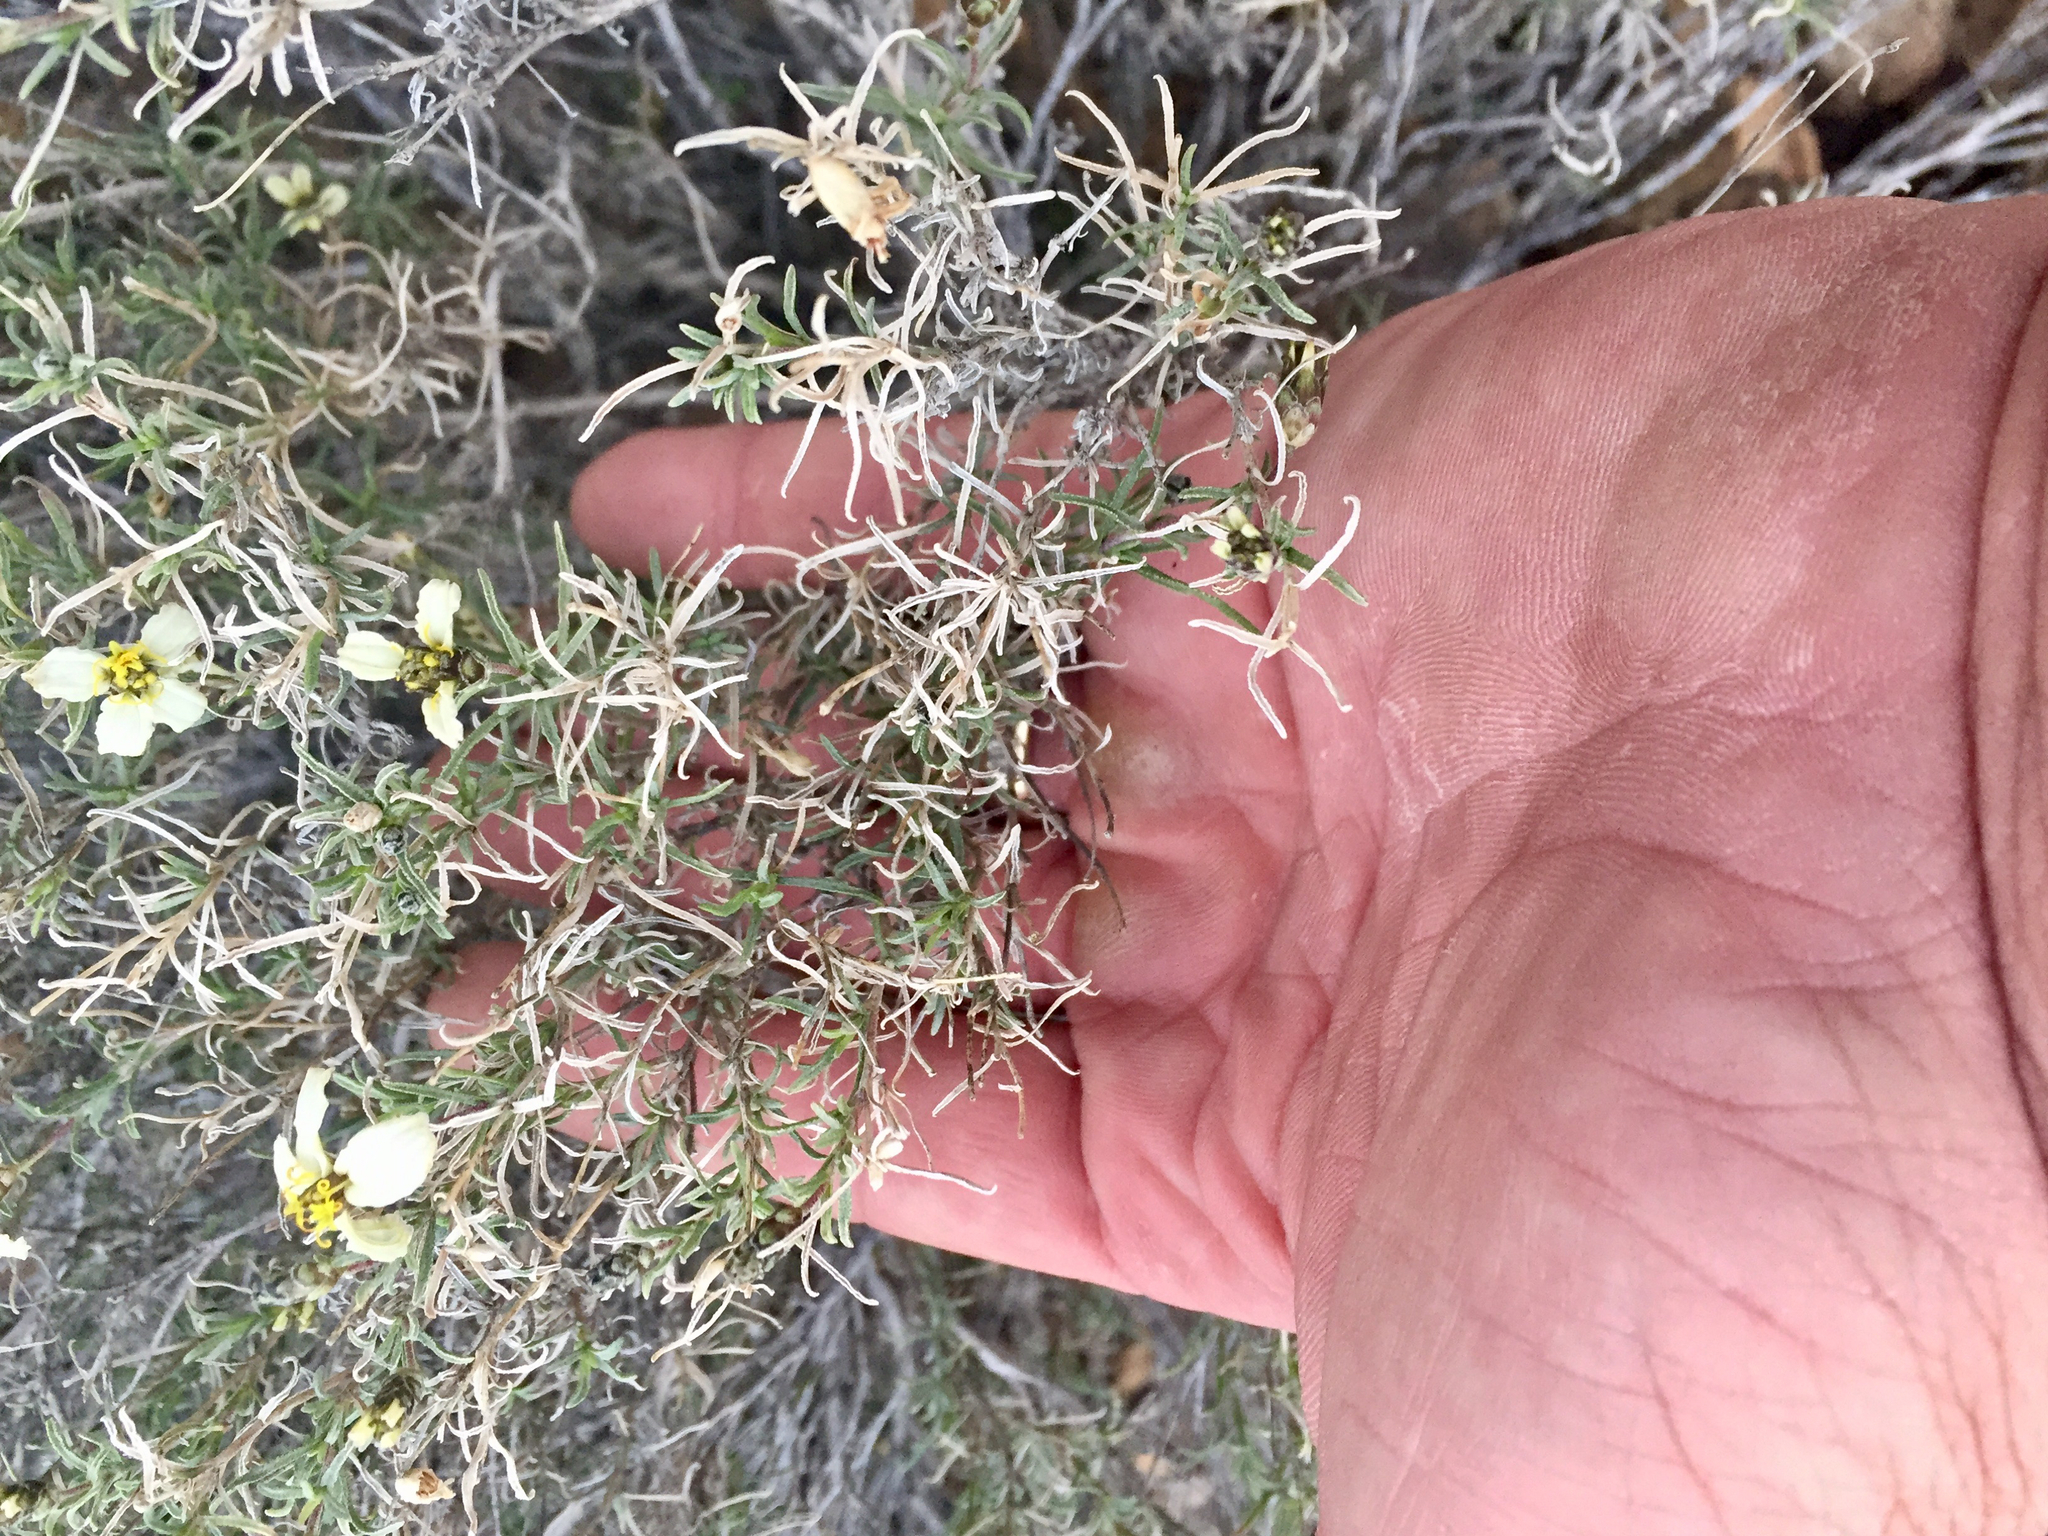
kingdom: Plantae
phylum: Tracheophyta
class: Magnoliopsida
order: Asterales
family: Asteraceae
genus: Zinnia
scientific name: Zinnia acerosa
